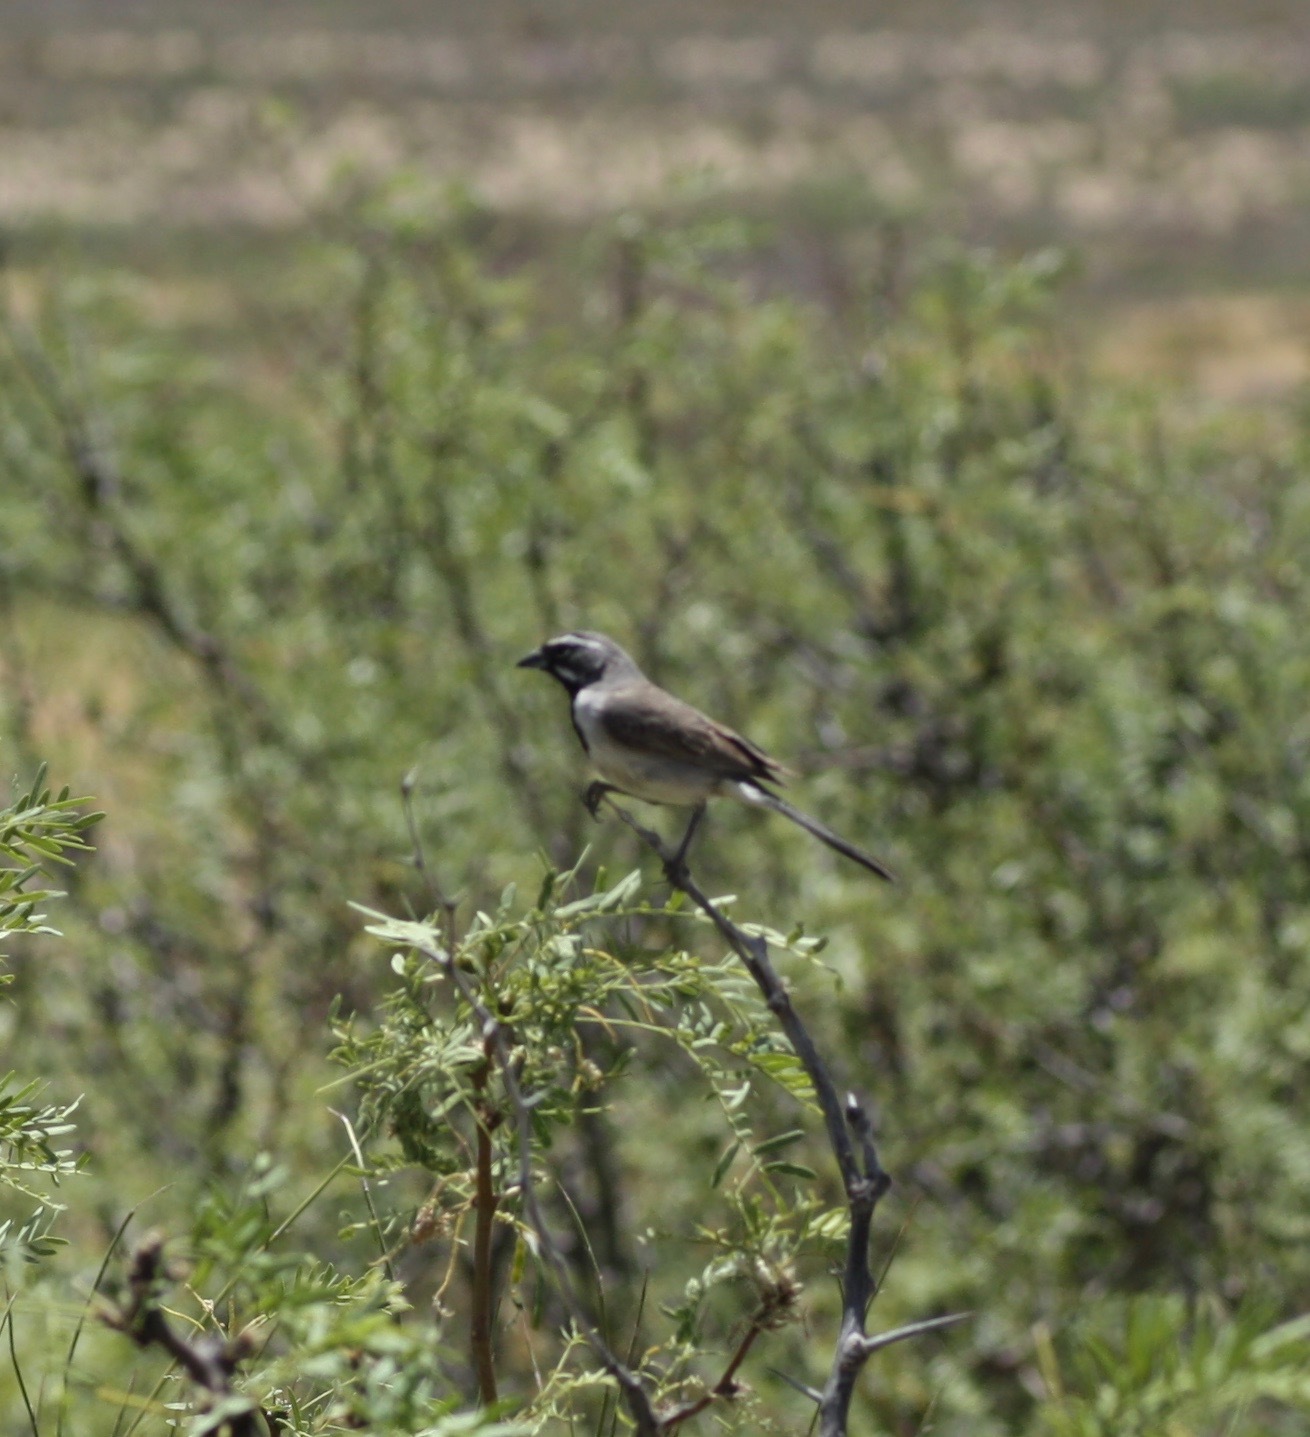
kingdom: Animalia
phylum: Chordata
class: Aves
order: Passeriformes
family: Passerellidae
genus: Amphispiza
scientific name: Amphispiza bilineata
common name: Black-throated sparrow
